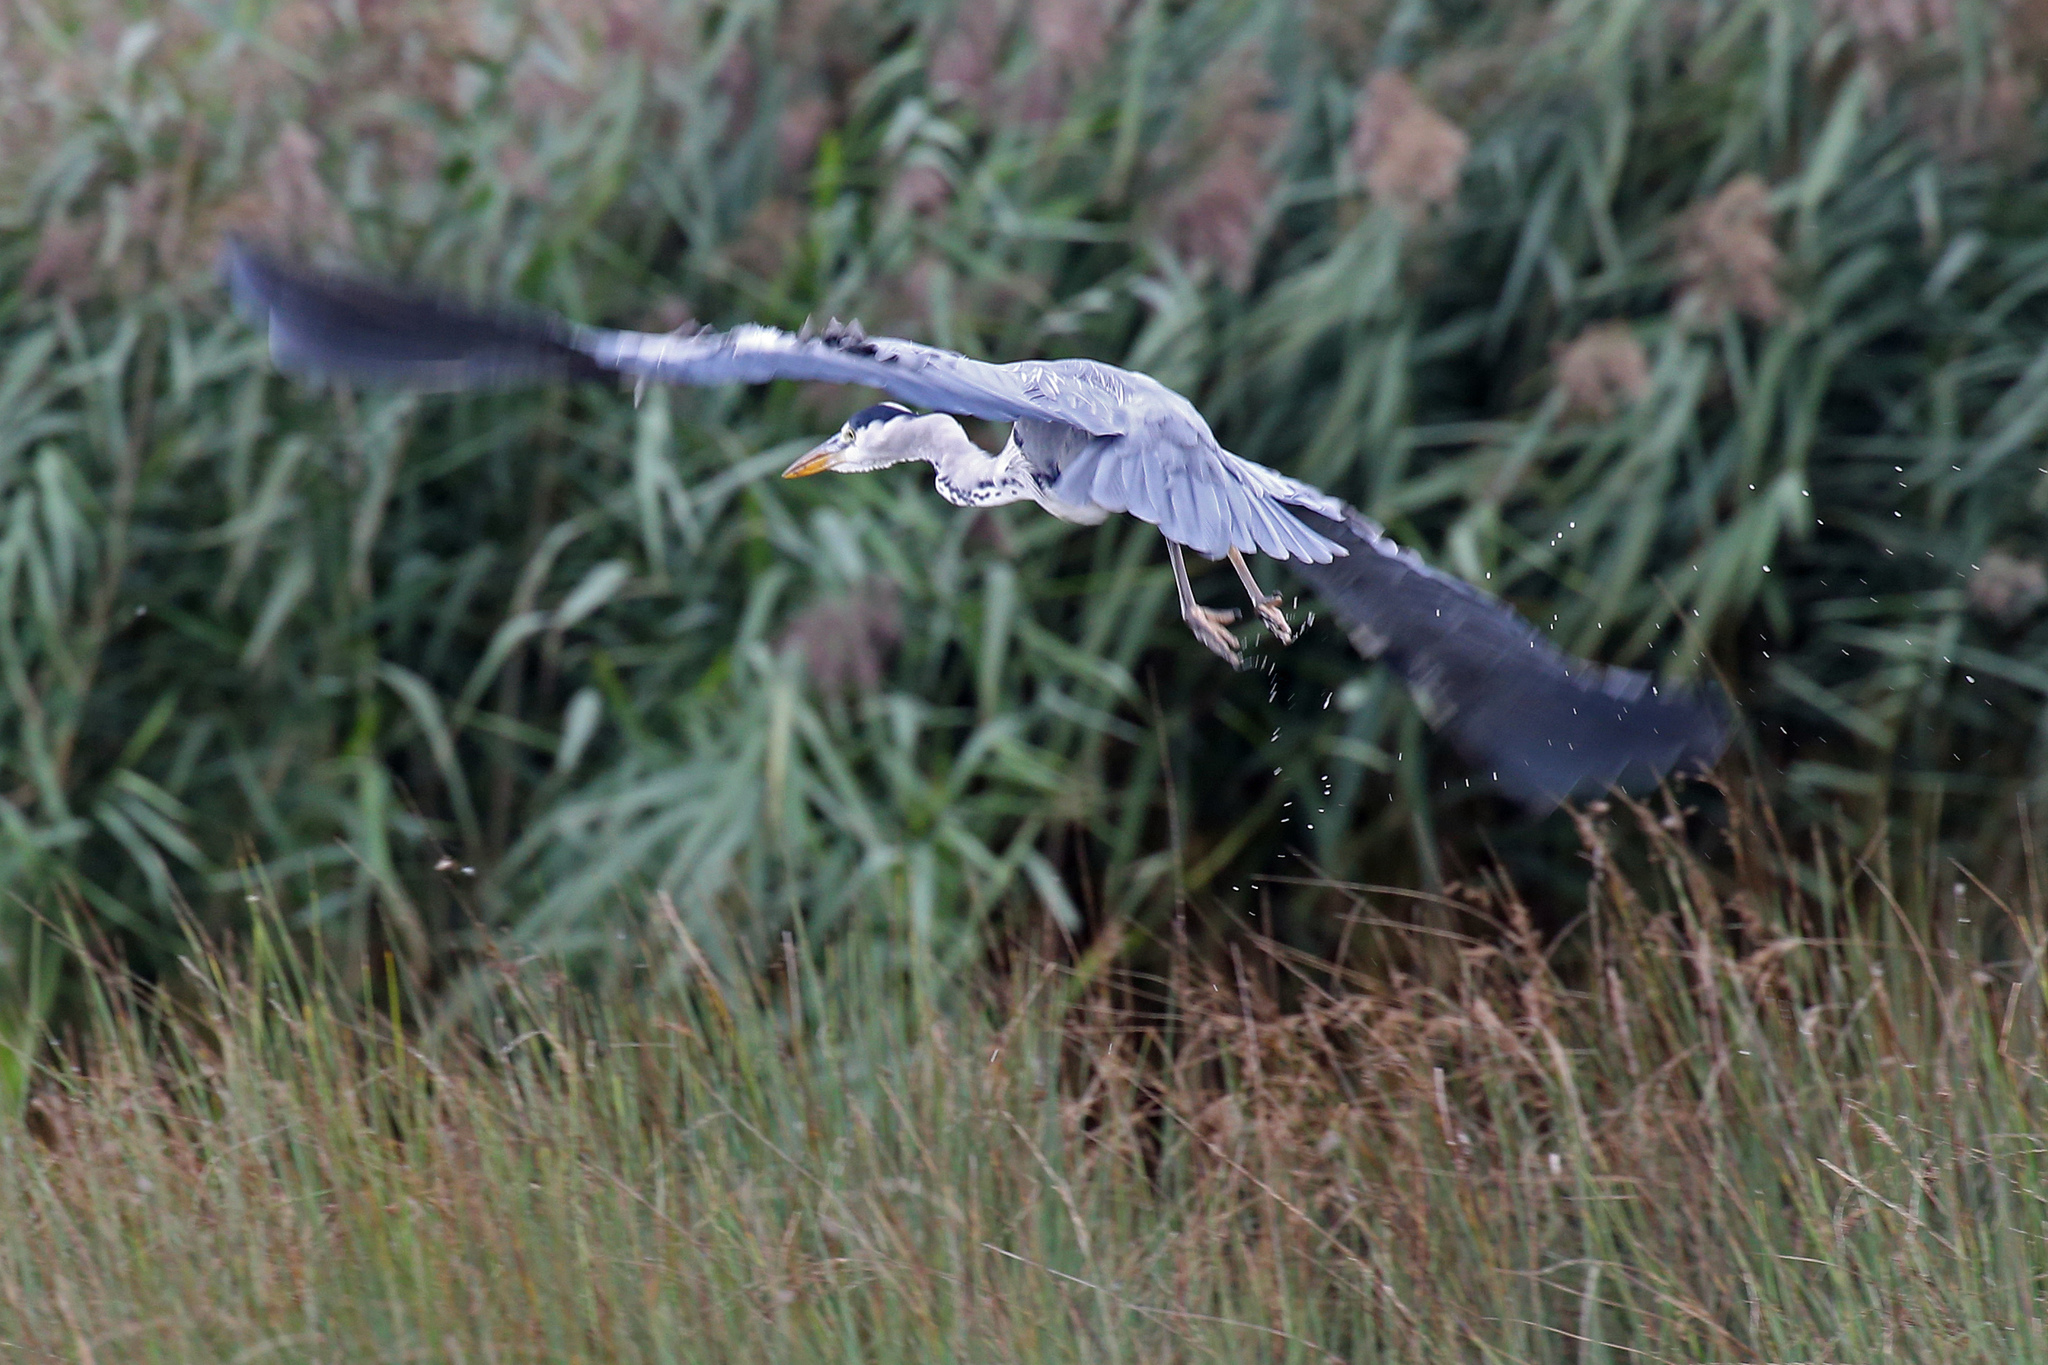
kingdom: Animalia
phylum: Chordata
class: Aves
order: Pelecaniformes
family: Ardeidae
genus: Ardea
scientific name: Ardea cinerea
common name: Grey heron
